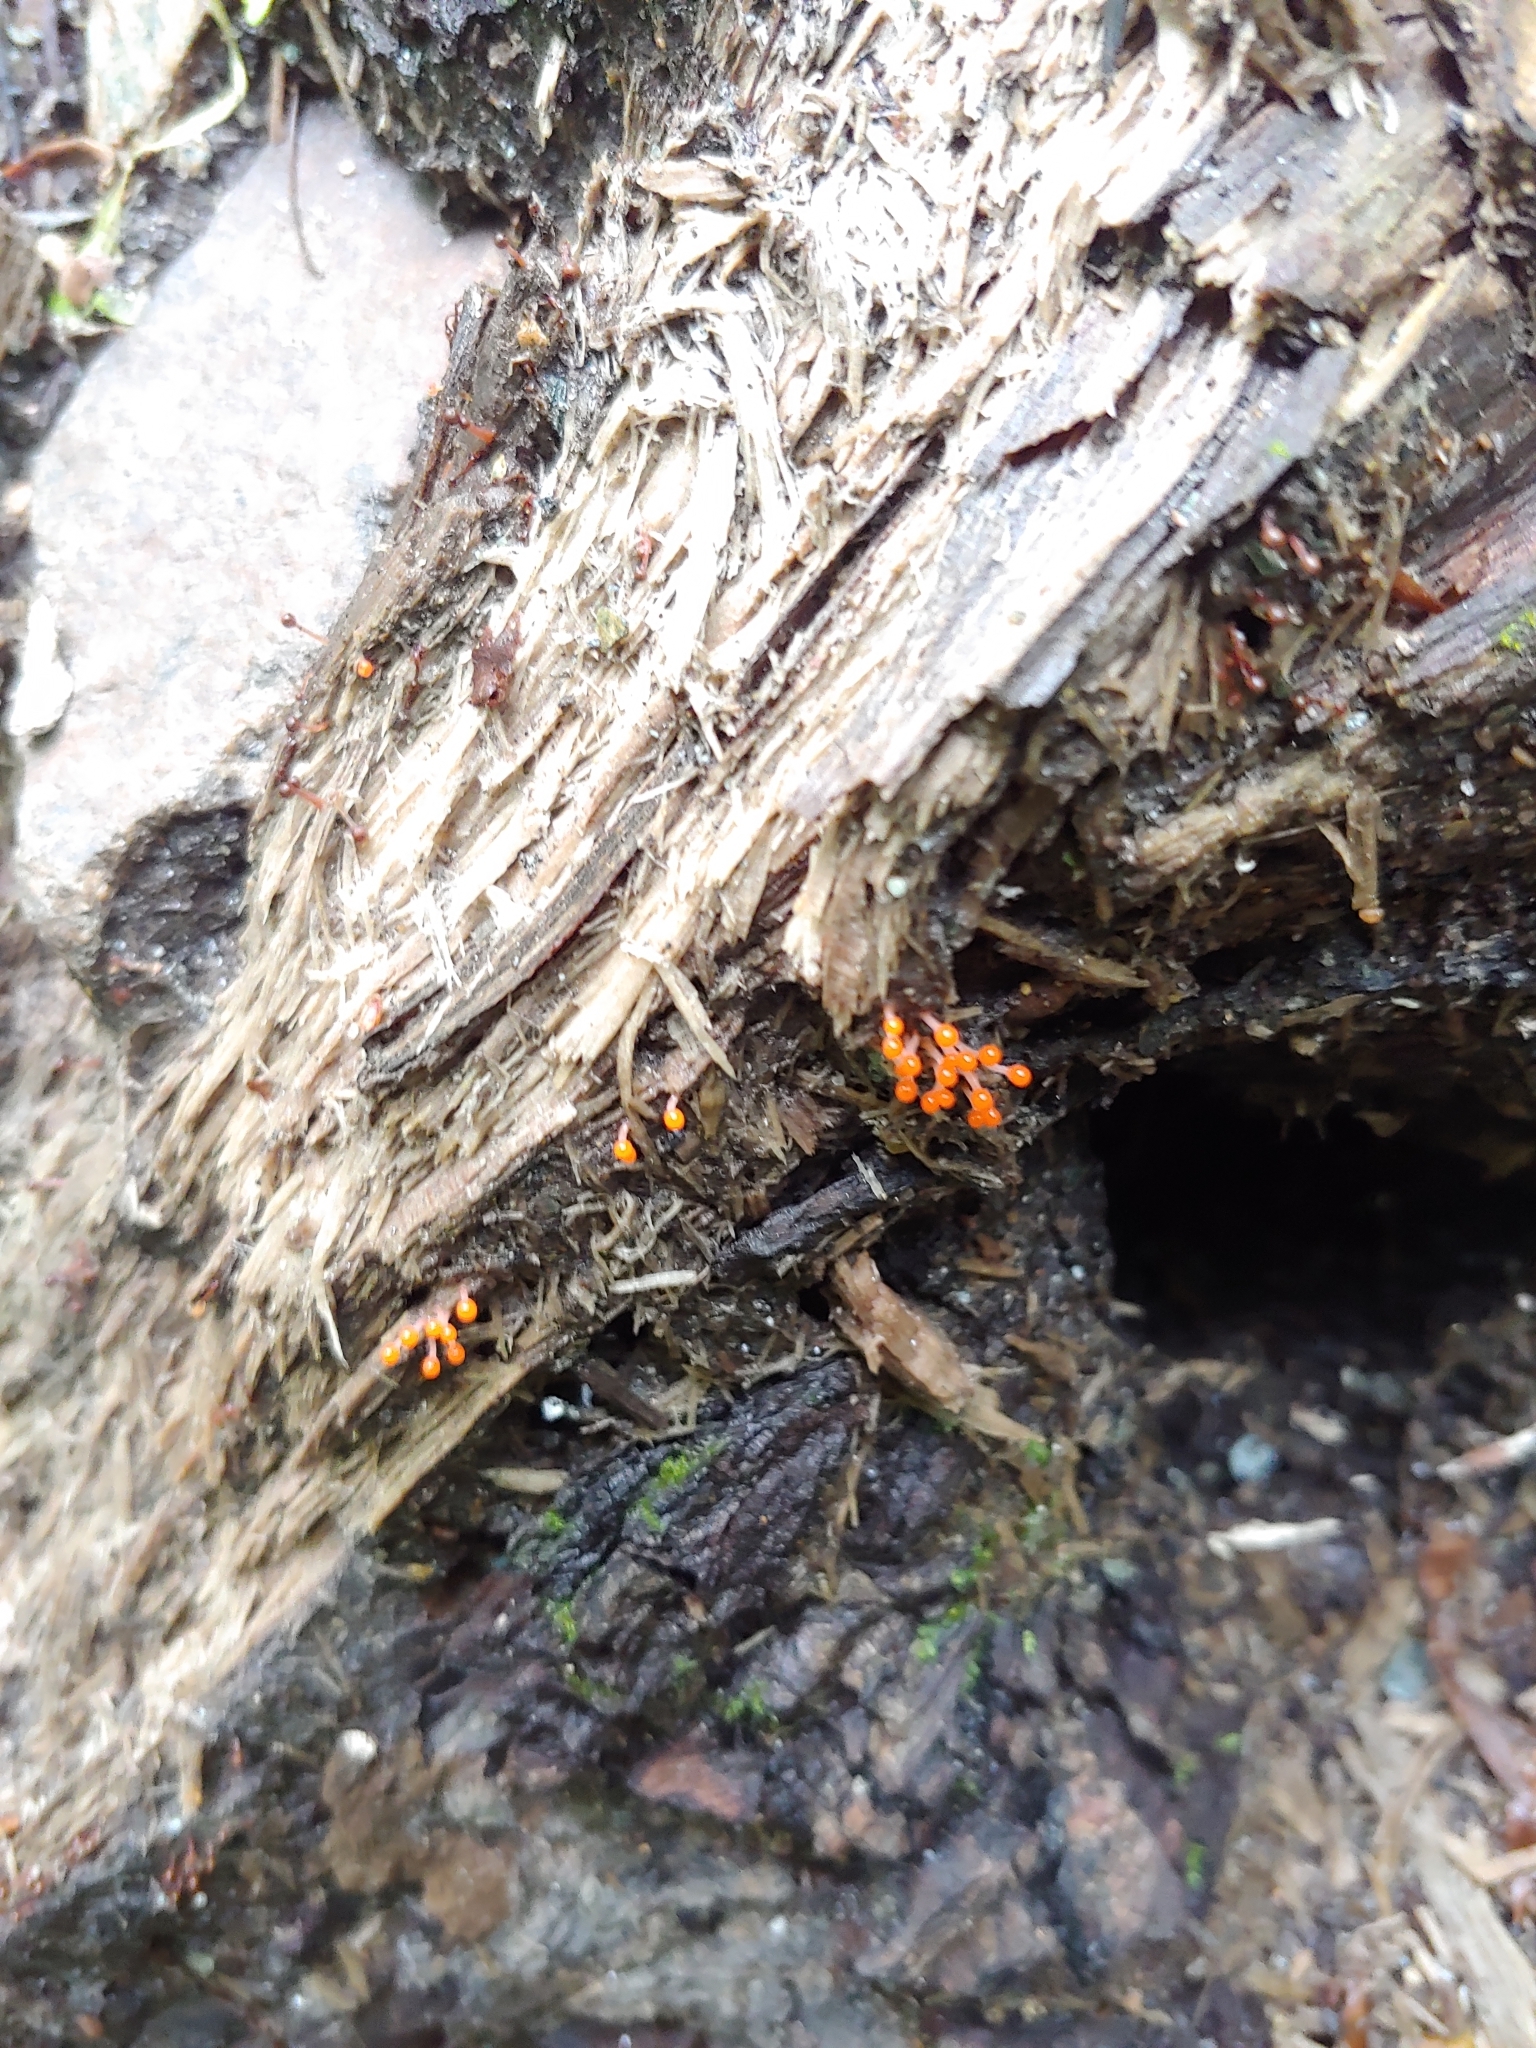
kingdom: Protozoa
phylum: Mycetozoa
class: Myxomycetes
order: Trichiales
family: Arcyriaceae
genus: Hemitrichia
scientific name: Hemitrichia decipiens
